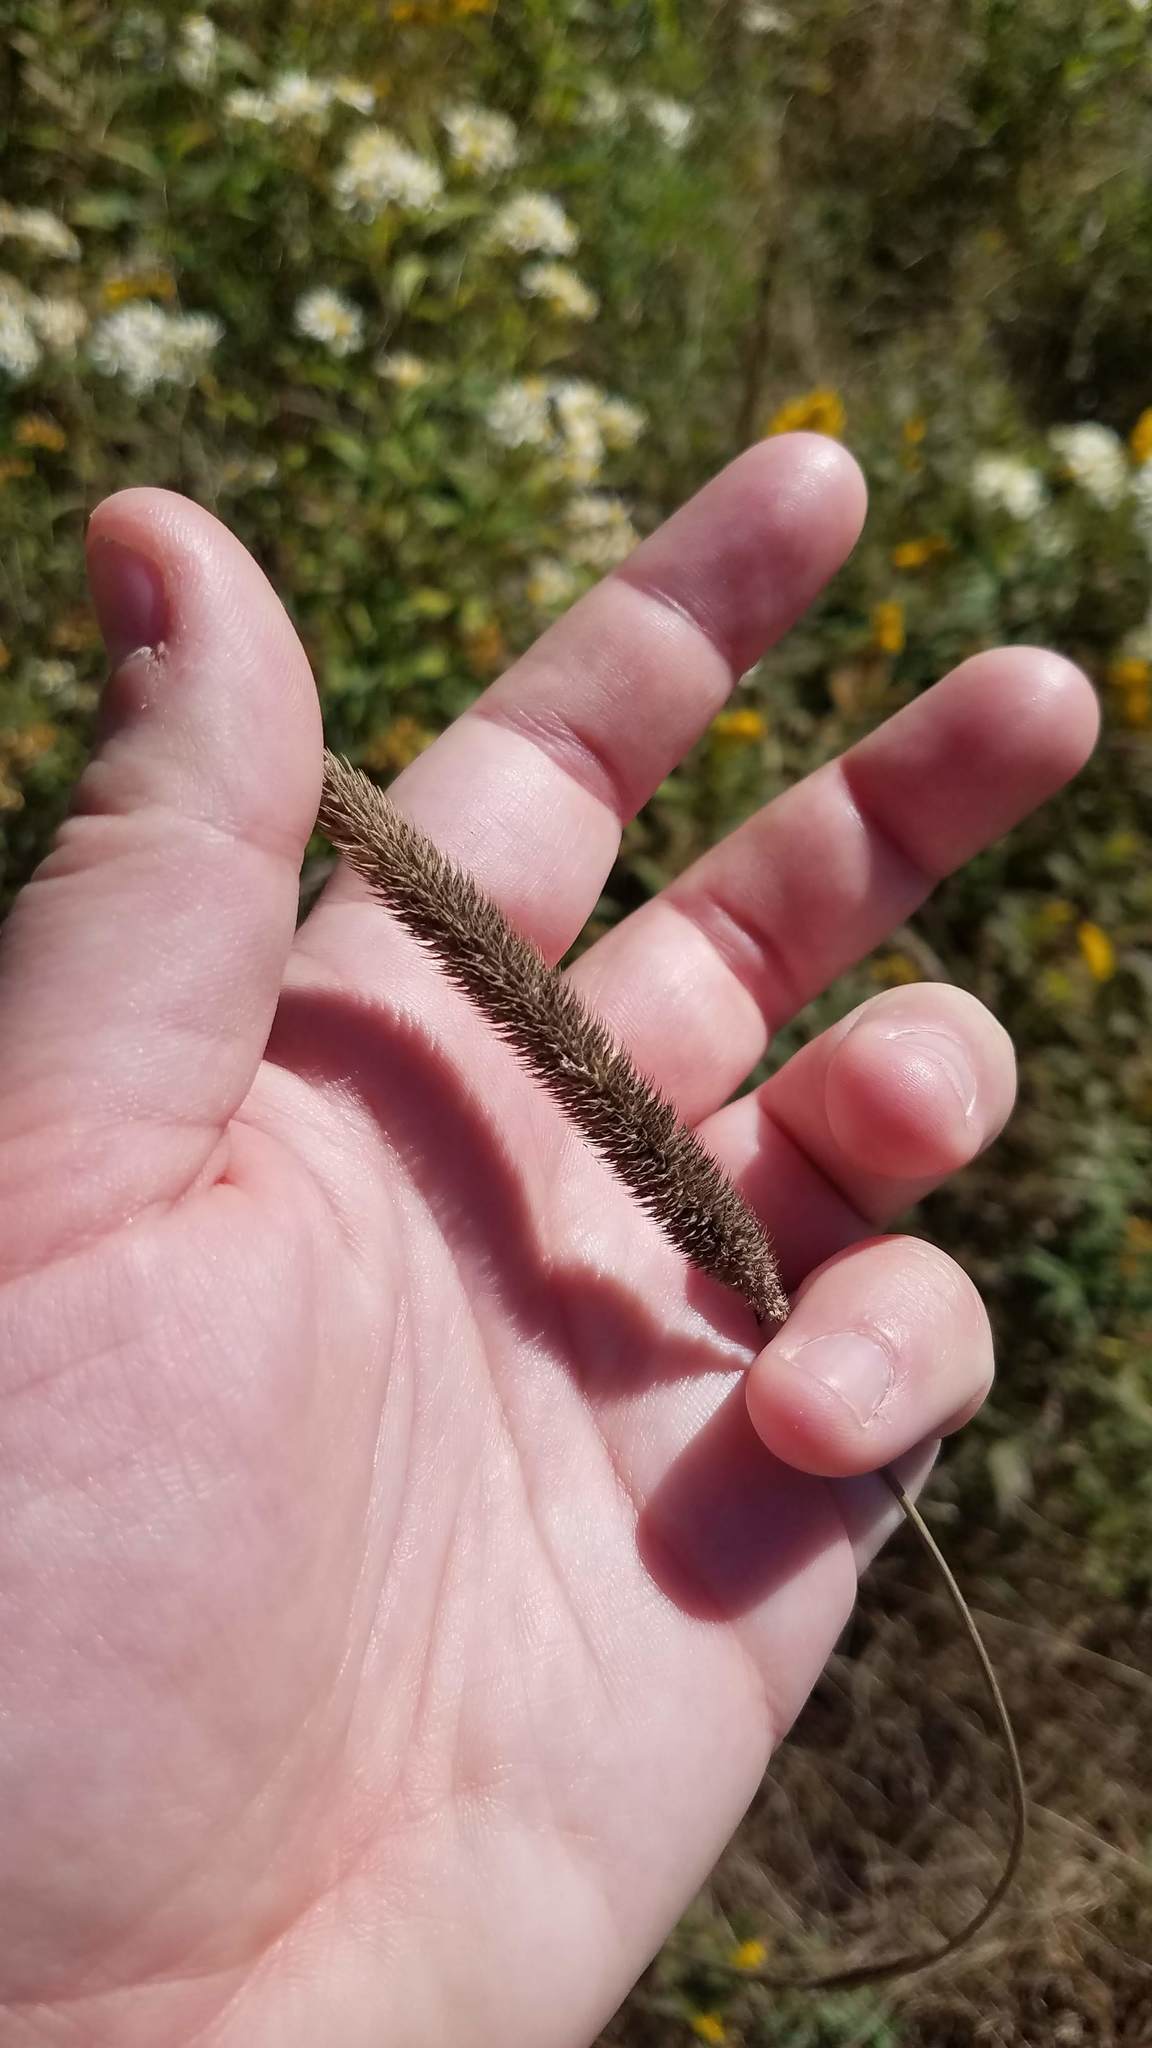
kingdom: Plantae
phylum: Tracheophyta
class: Liliopsida
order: Poales
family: Poaceae
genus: Phleum
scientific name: Phleum pratense
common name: Timothy grass
